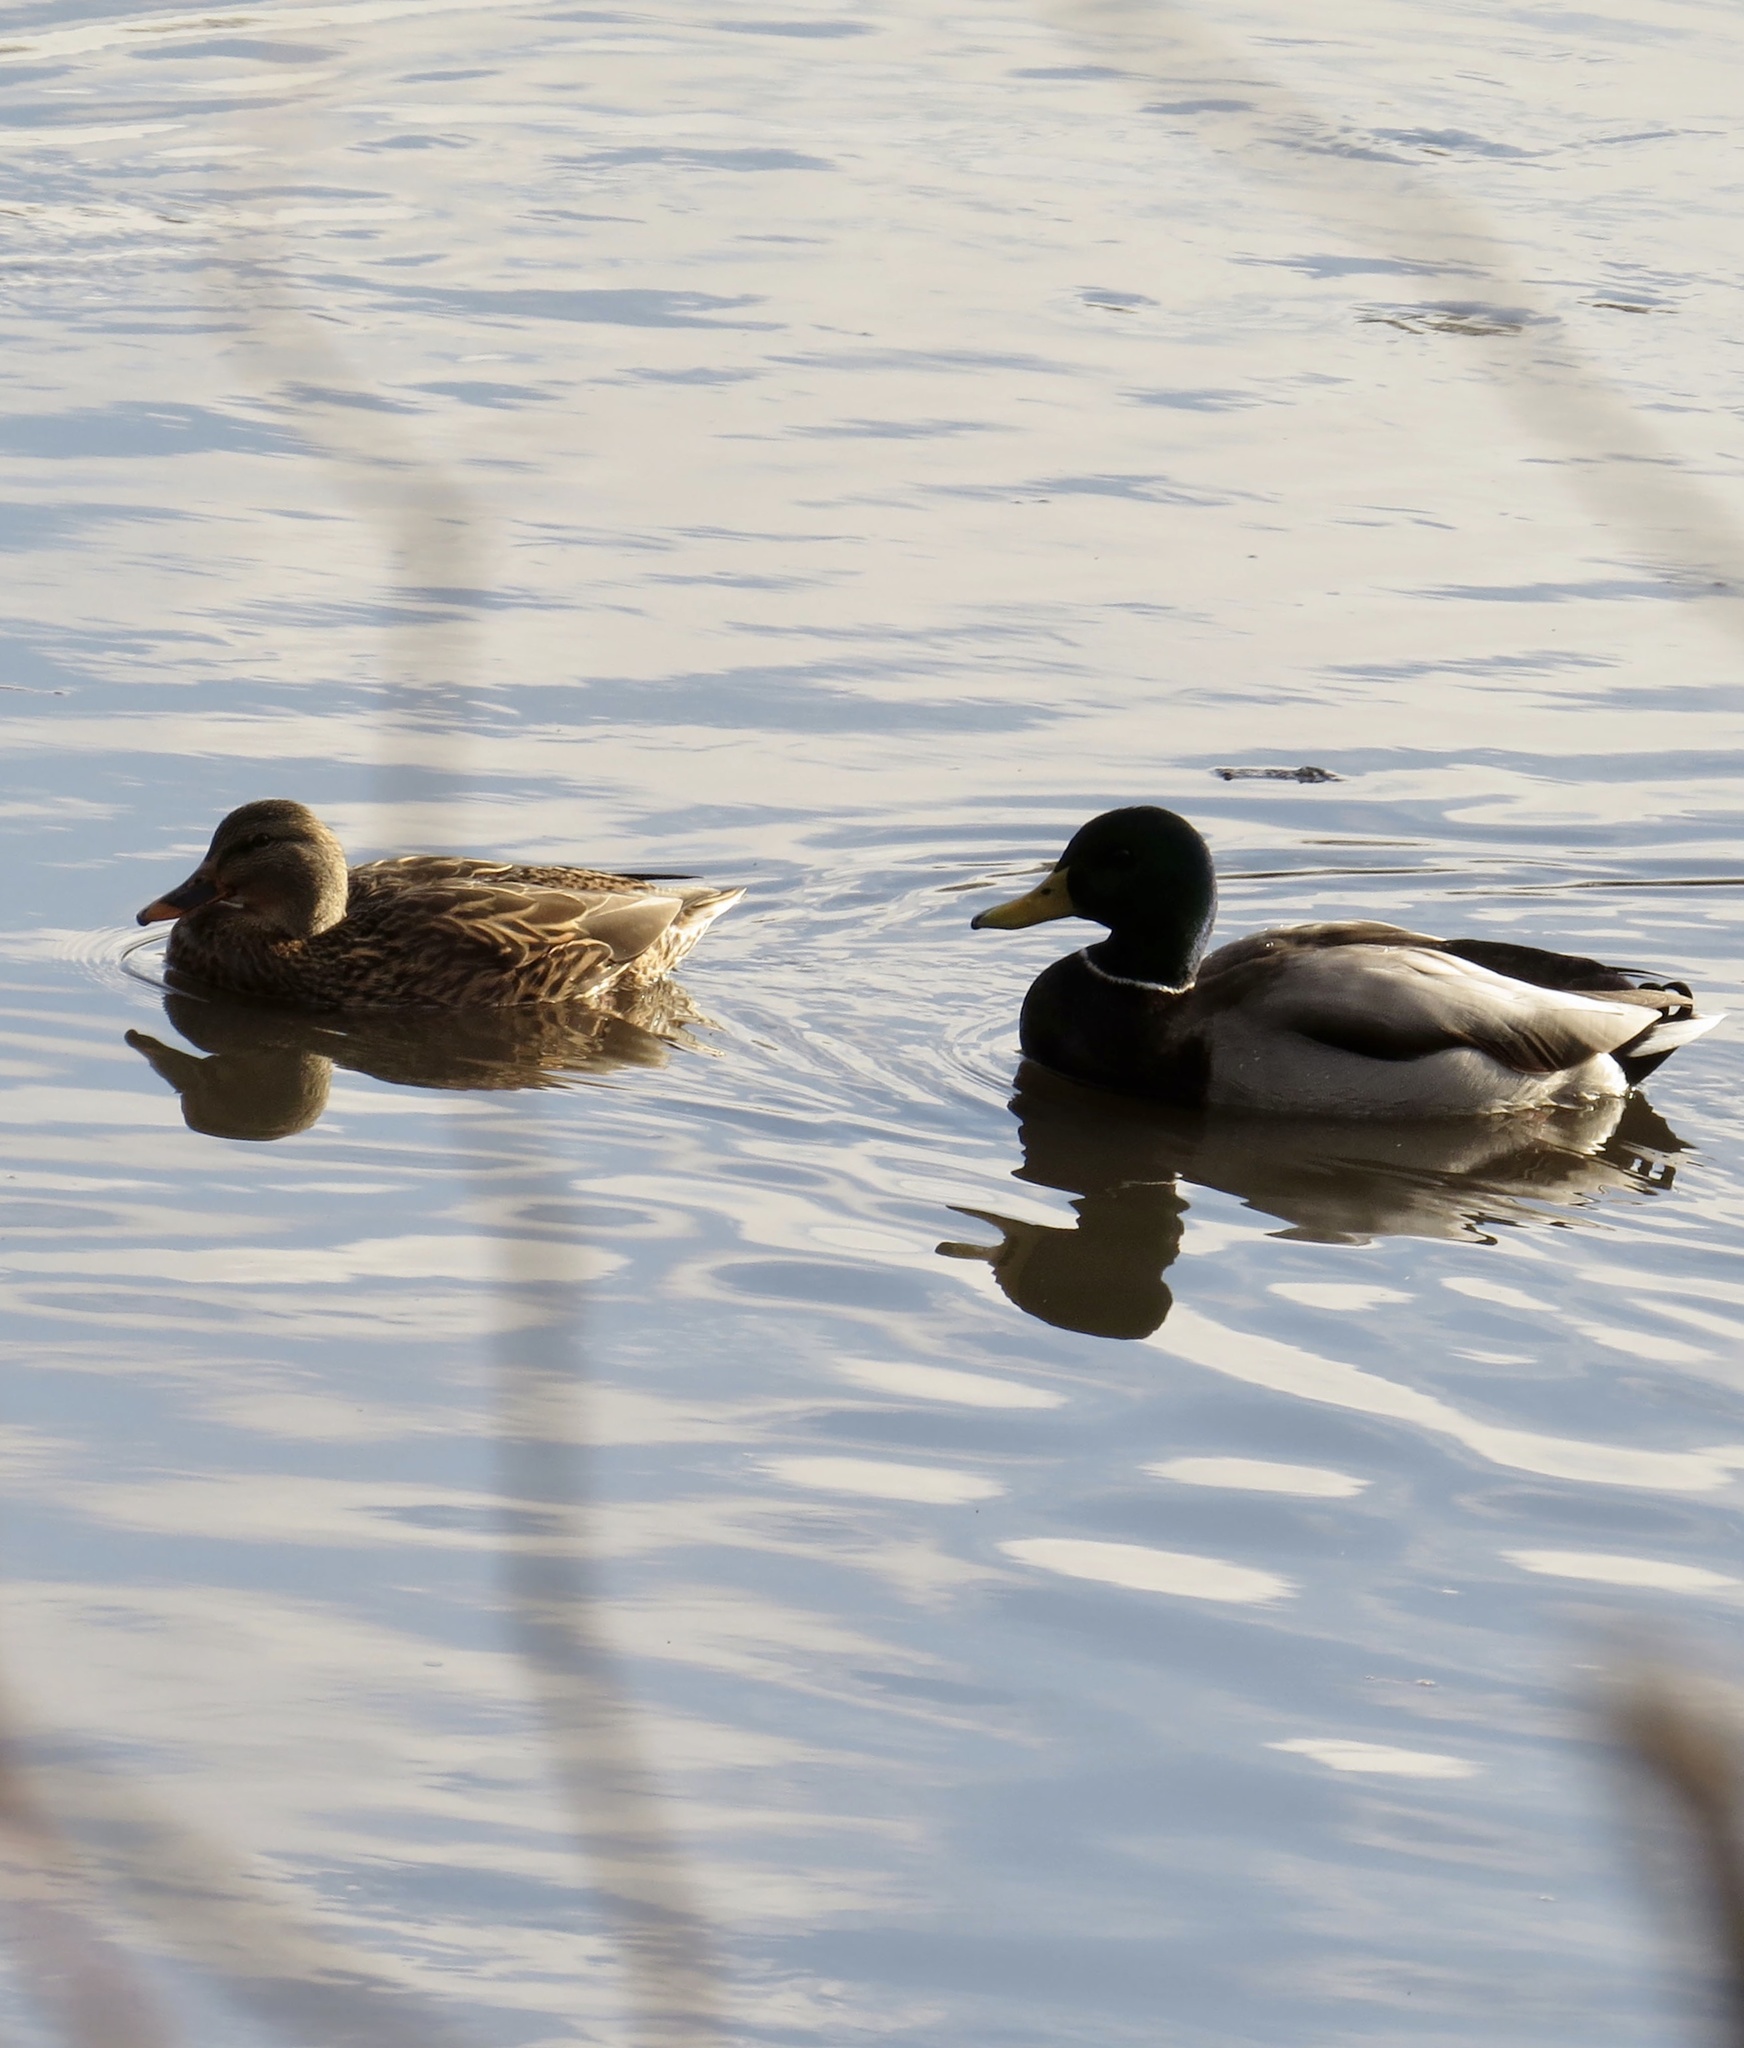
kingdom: Animalia
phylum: Chordata
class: Aves
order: Anseriformes
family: Anatidae
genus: Anas
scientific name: Anas platyrhynchos
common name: Mallard
